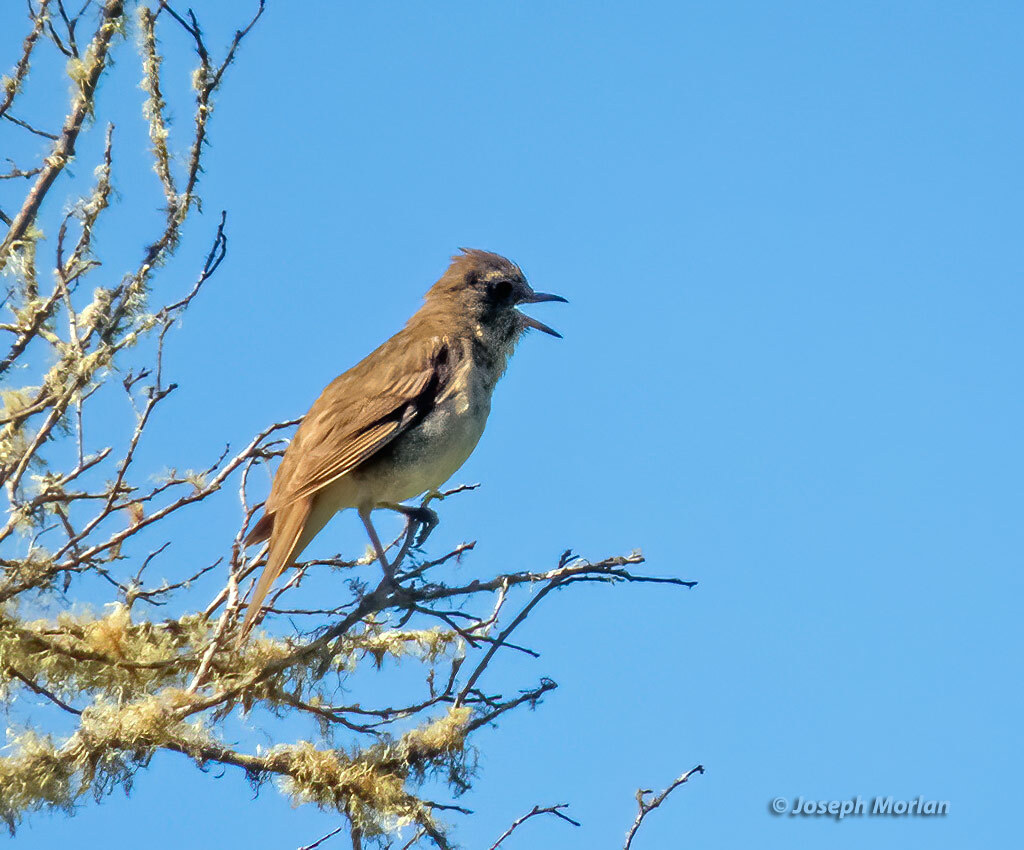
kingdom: Animalia
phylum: Chordata
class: Aves
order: Passeriformes
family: Turdidae
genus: Catharus
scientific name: Catharus ustulatus
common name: Swainson's thrush
